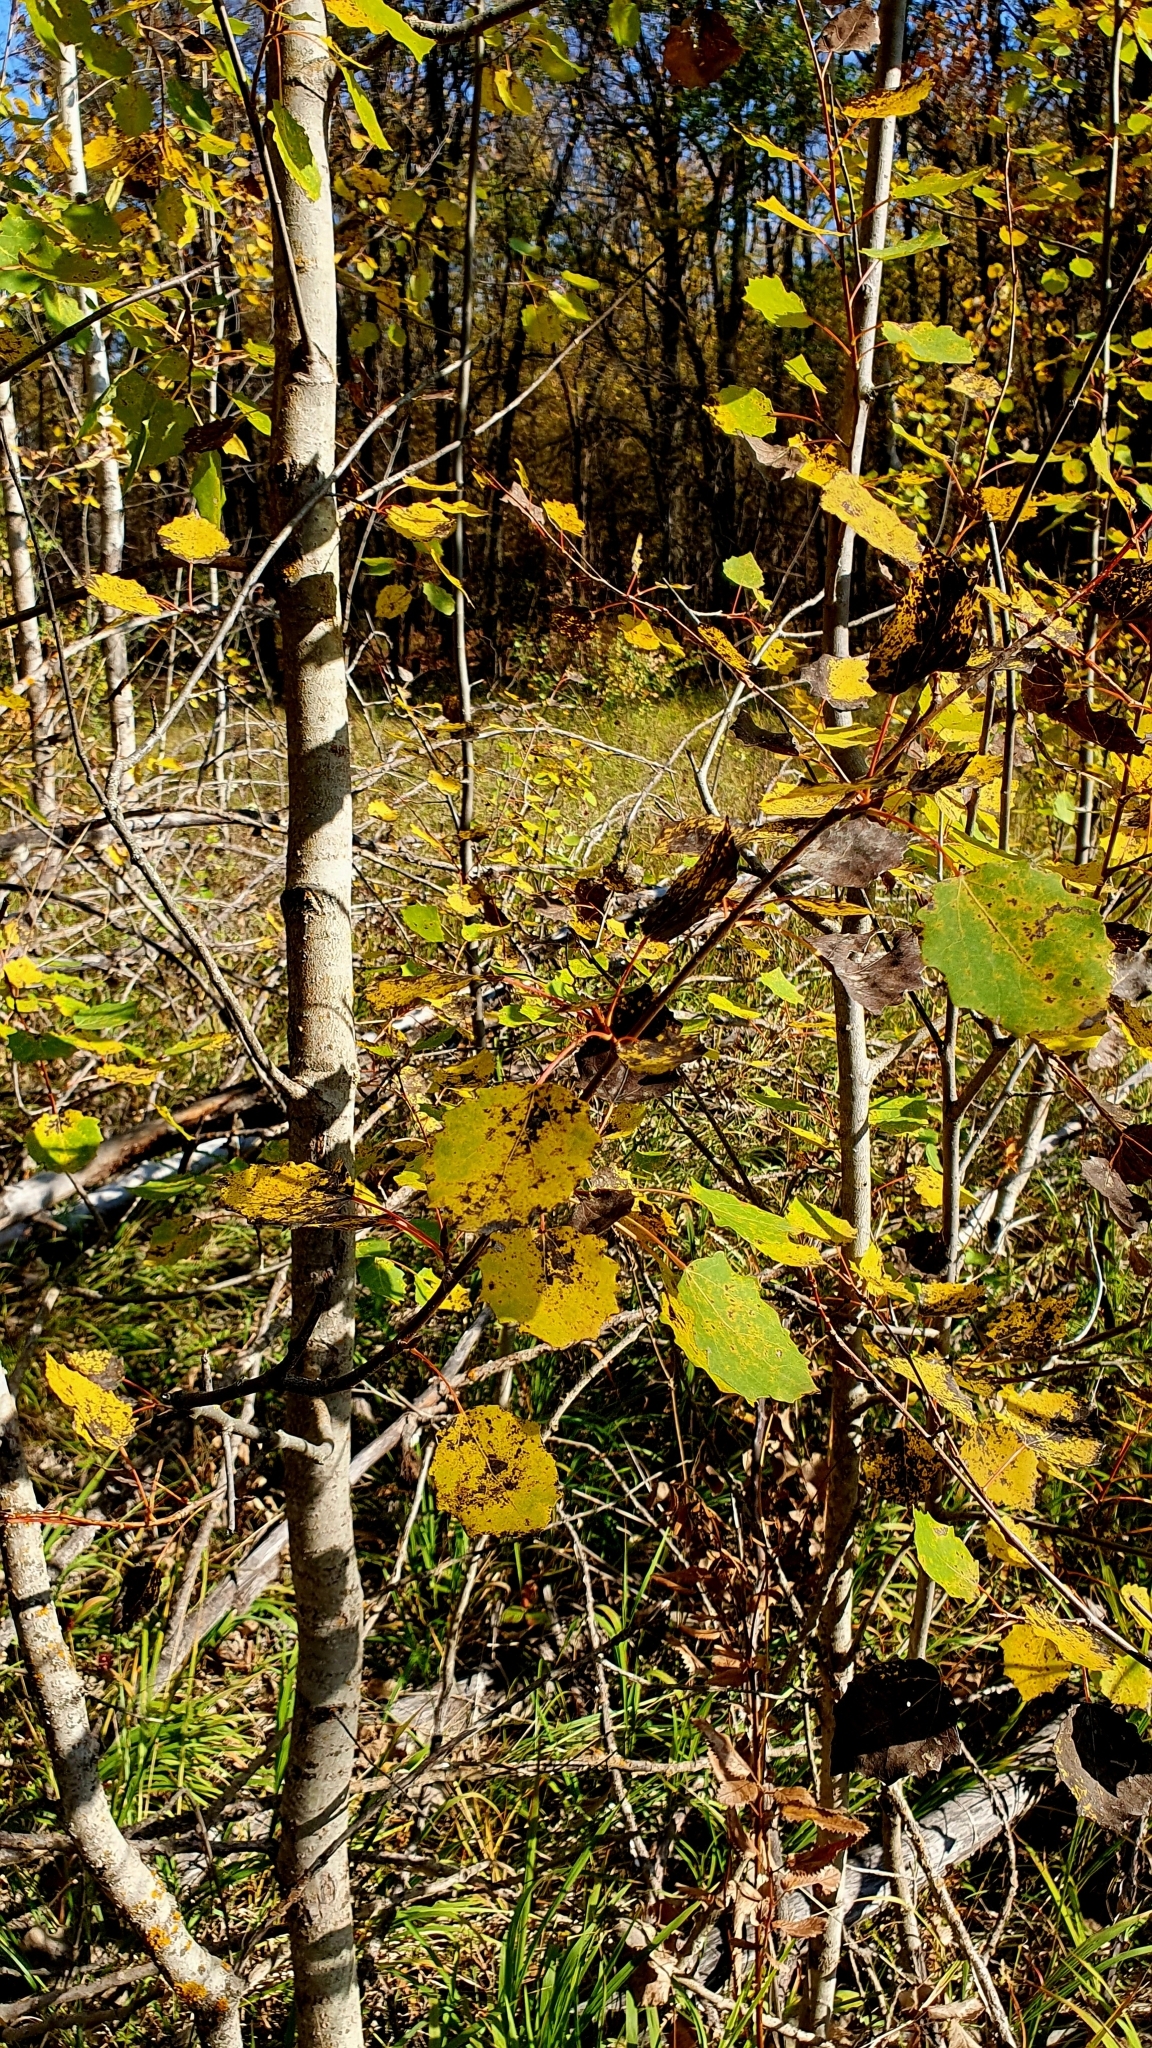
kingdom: Plantae
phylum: Tracheophyta
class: Magnoliopsida
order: Malpighiales
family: Salicaceae
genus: Populus
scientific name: Populus tremula
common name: European aspen
